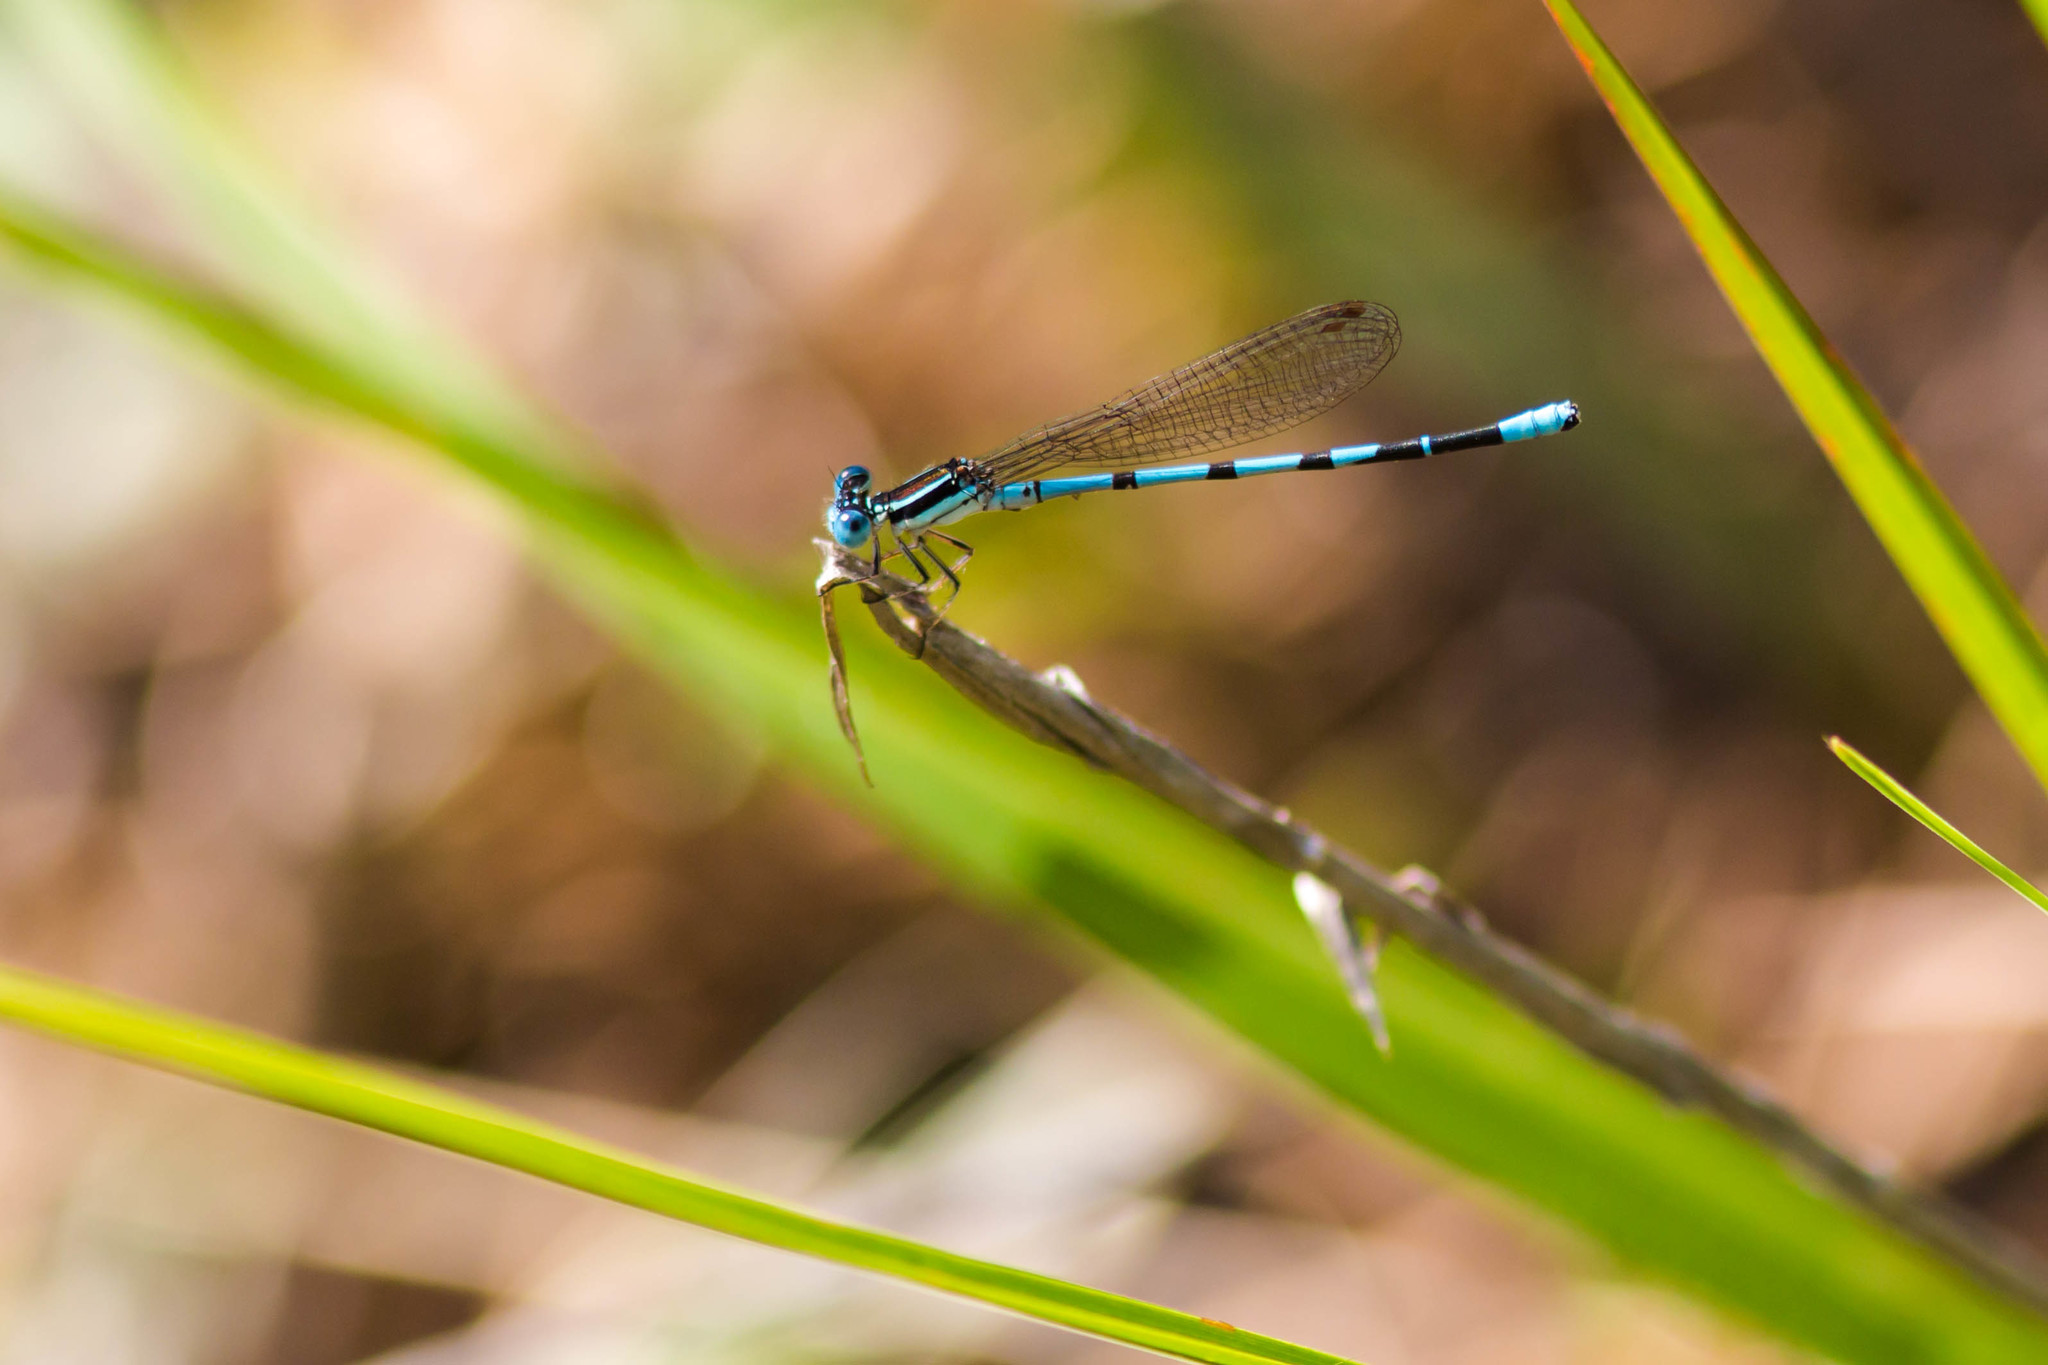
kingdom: Animalia
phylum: Arthropoda
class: Insecta
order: Odonata
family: Coenagrionidae
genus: Argia
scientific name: Argia bipunctulata
